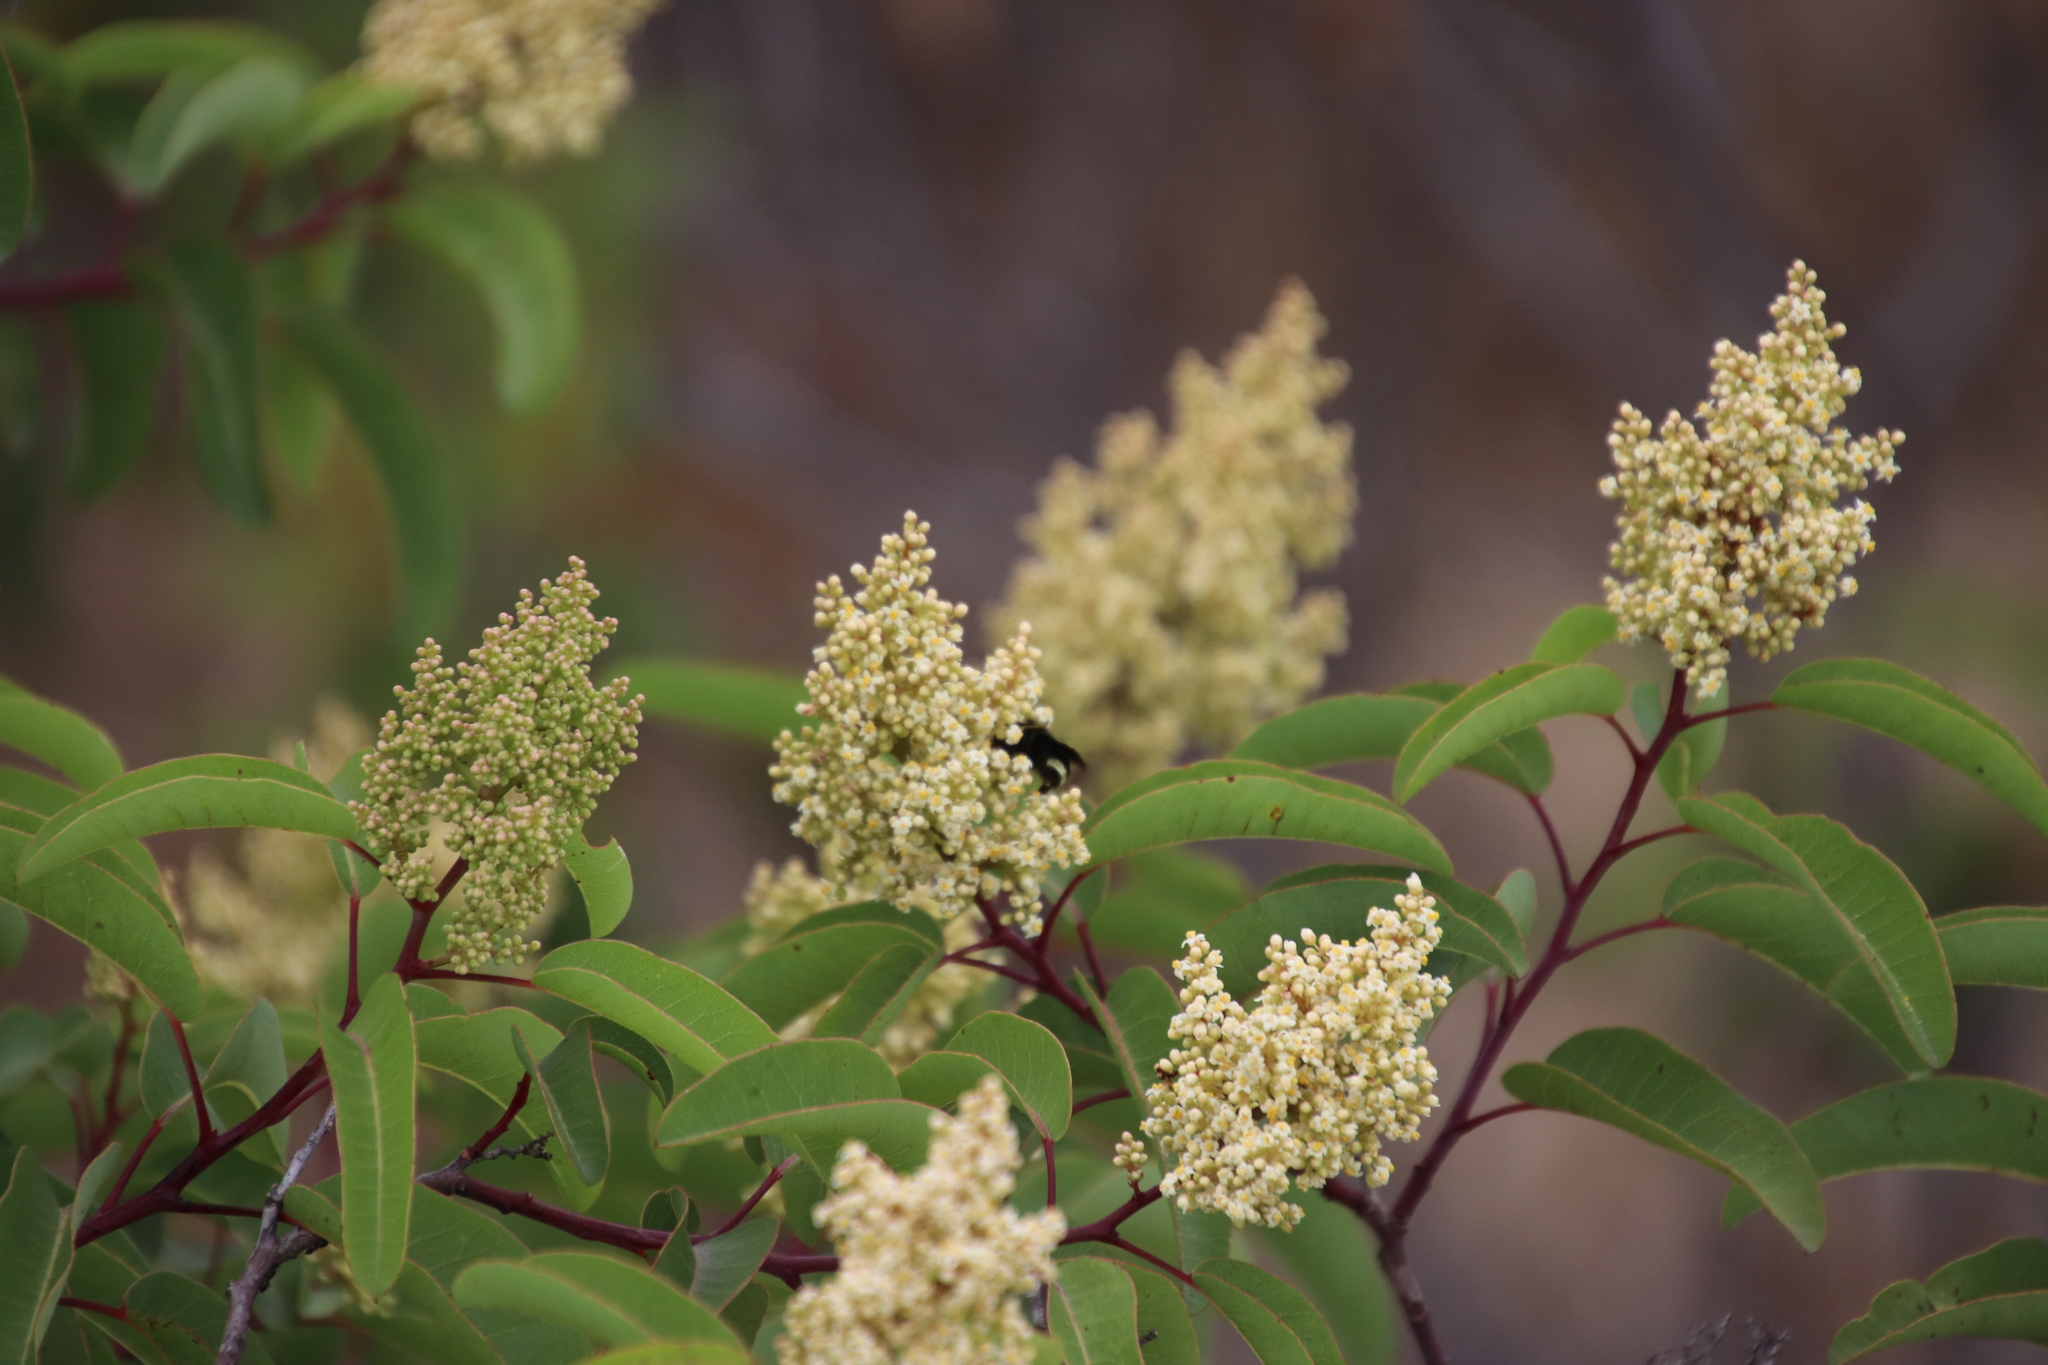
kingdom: Plantae
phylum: Tracheophyta
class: Magnoliopsida
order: Sapindales
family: Anacardiaceae
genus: Malosma
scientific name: Malosma laurina
